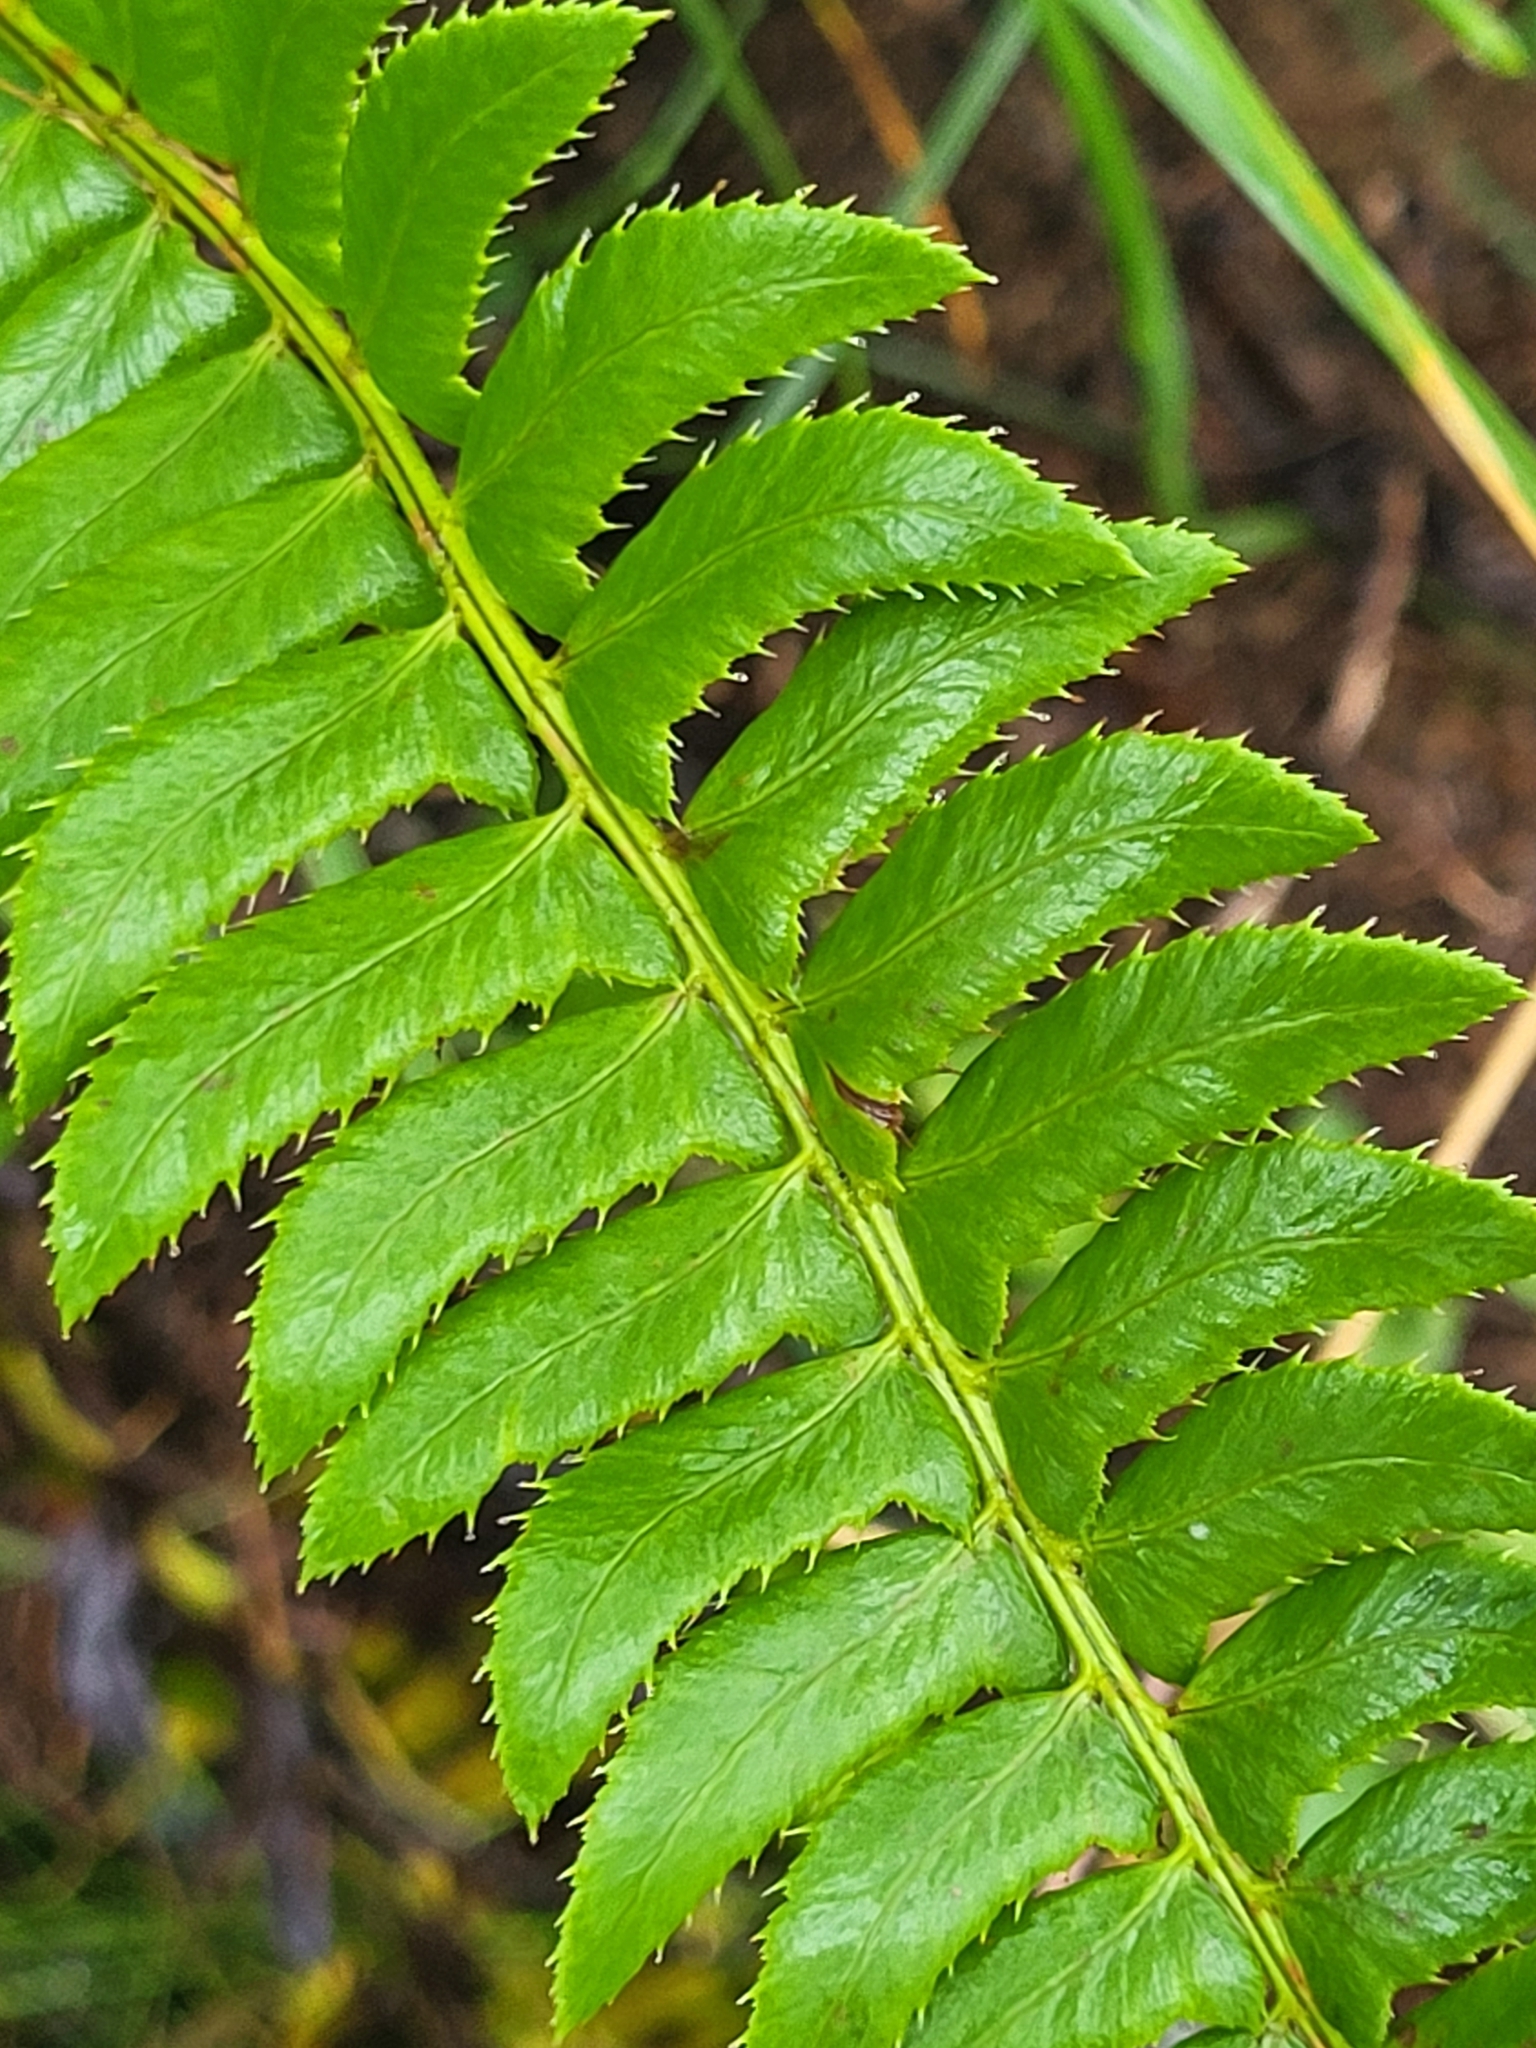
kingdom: Plantae
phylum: Tracheophyta
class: Polypodiopsida
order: Polypodiales
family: Dryopteridaceae
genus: Polystichum
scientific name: Polystichum lonchitis
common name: Holly fern
